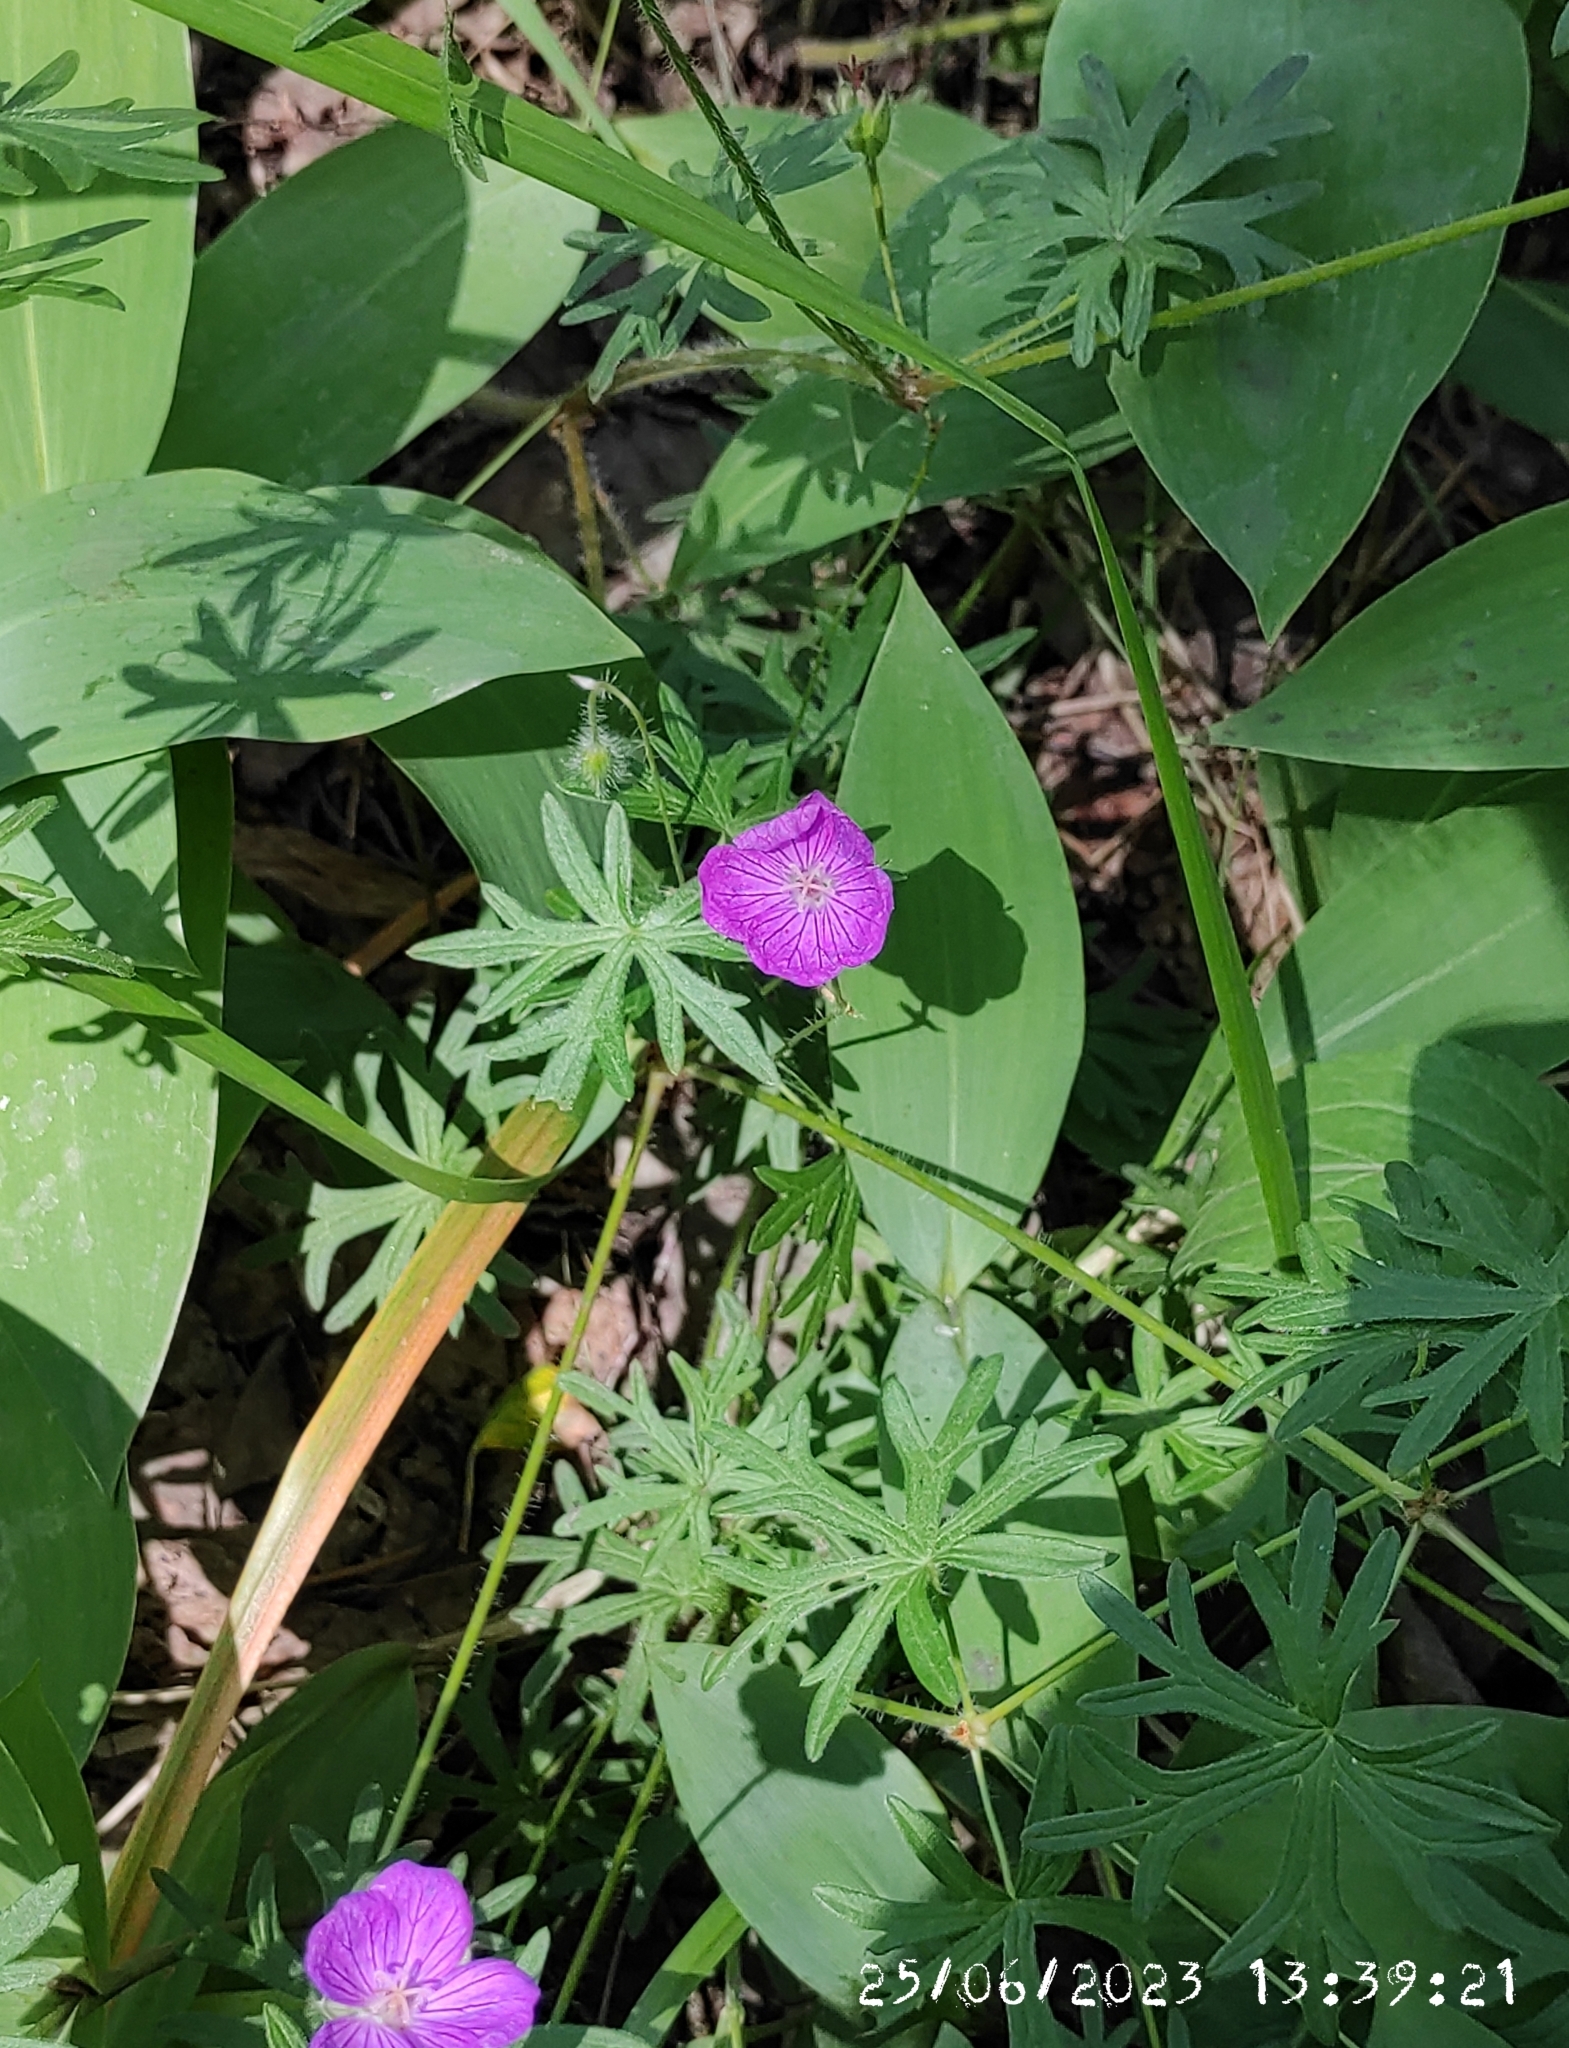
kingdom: Plantae
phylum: Tracheophyta
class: Magnoliopsida
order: Geraniales
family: Geraniaceae
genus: Geranium
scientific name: Geranium sanguineum
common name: Bloody crane's-bill
